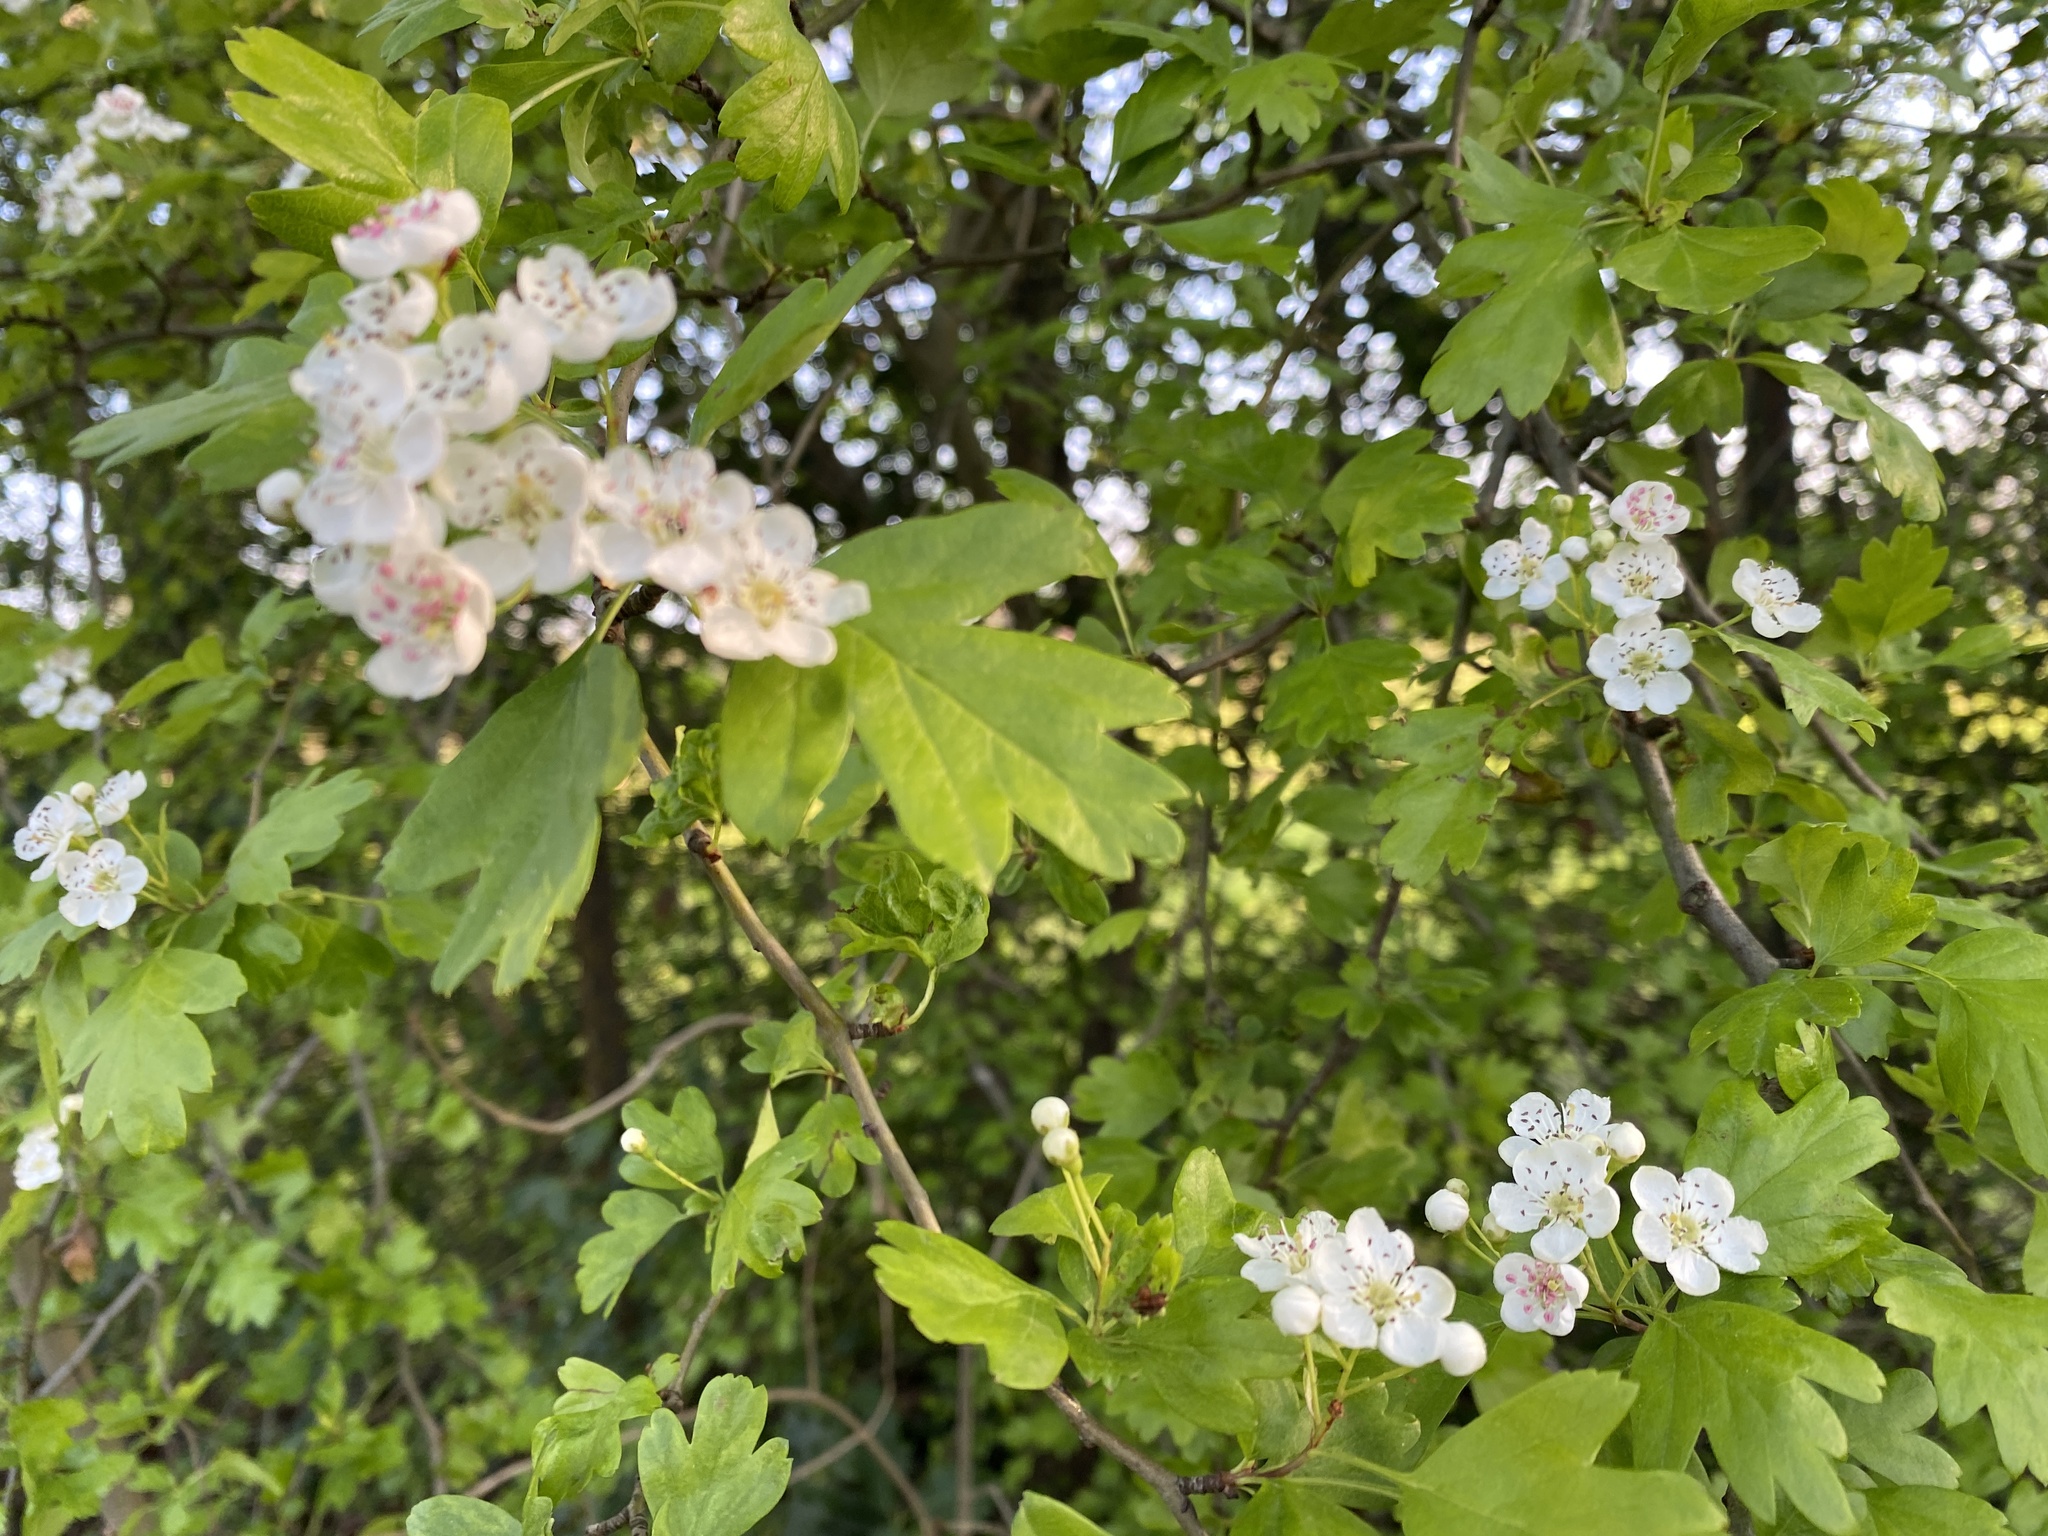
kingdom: Plantae
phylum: Tracheophyta
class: Magnoliopsida
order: Rosales
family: Rosaceae
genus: Crataegus
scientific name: Crataegus monogyna
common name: Hawthorn
